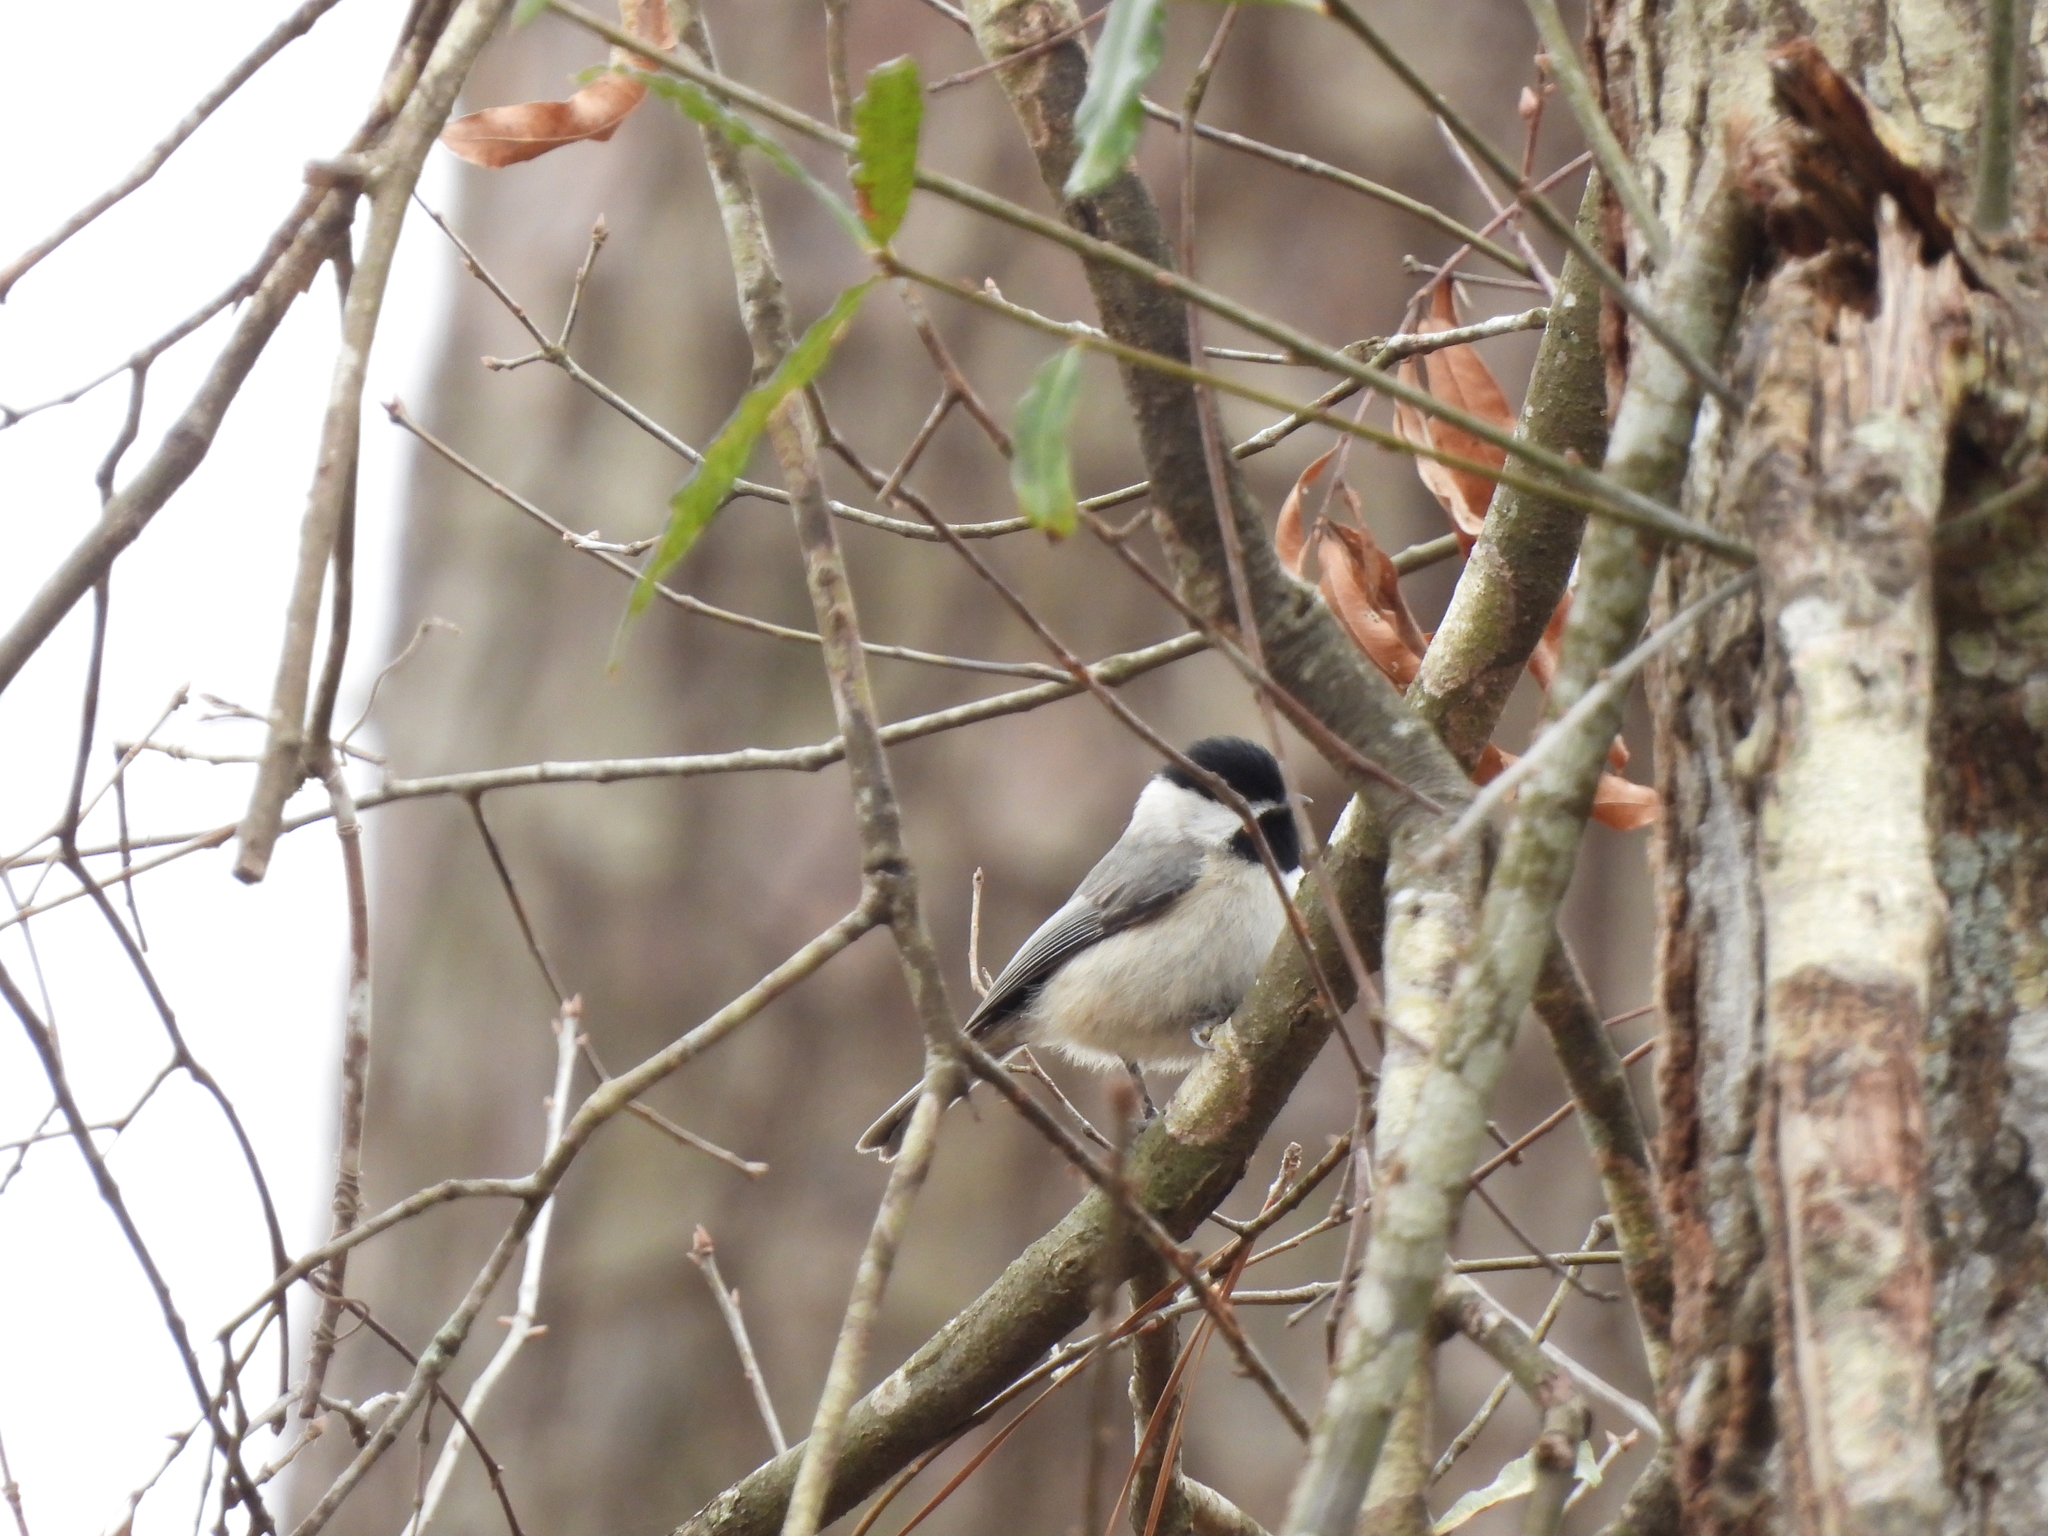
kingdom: Animalia
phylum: Chordata
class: Aves
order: Passeriformes
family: Paridae
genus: Poecile
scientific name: Poecile carolinensis
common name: Carolina chickadee
